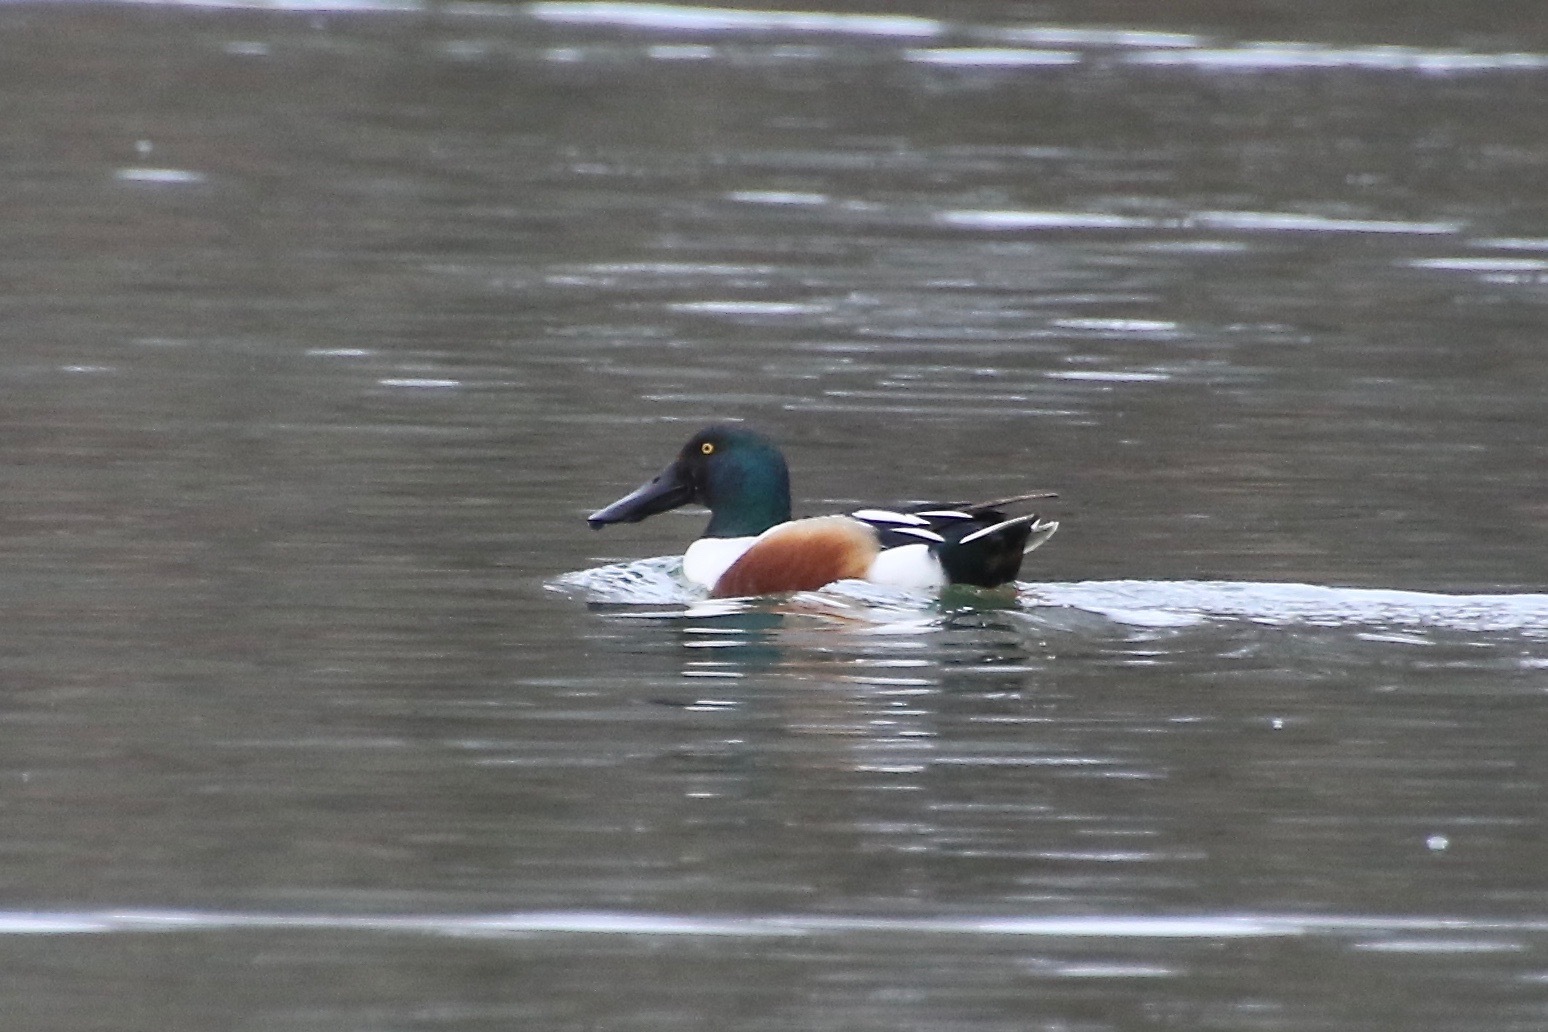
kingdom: Animalia
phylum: Chordata
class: Aves
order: Anseriformes
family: Anatidae
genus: Spatula
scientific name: Spatula clypeata
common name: Northern shoveler
